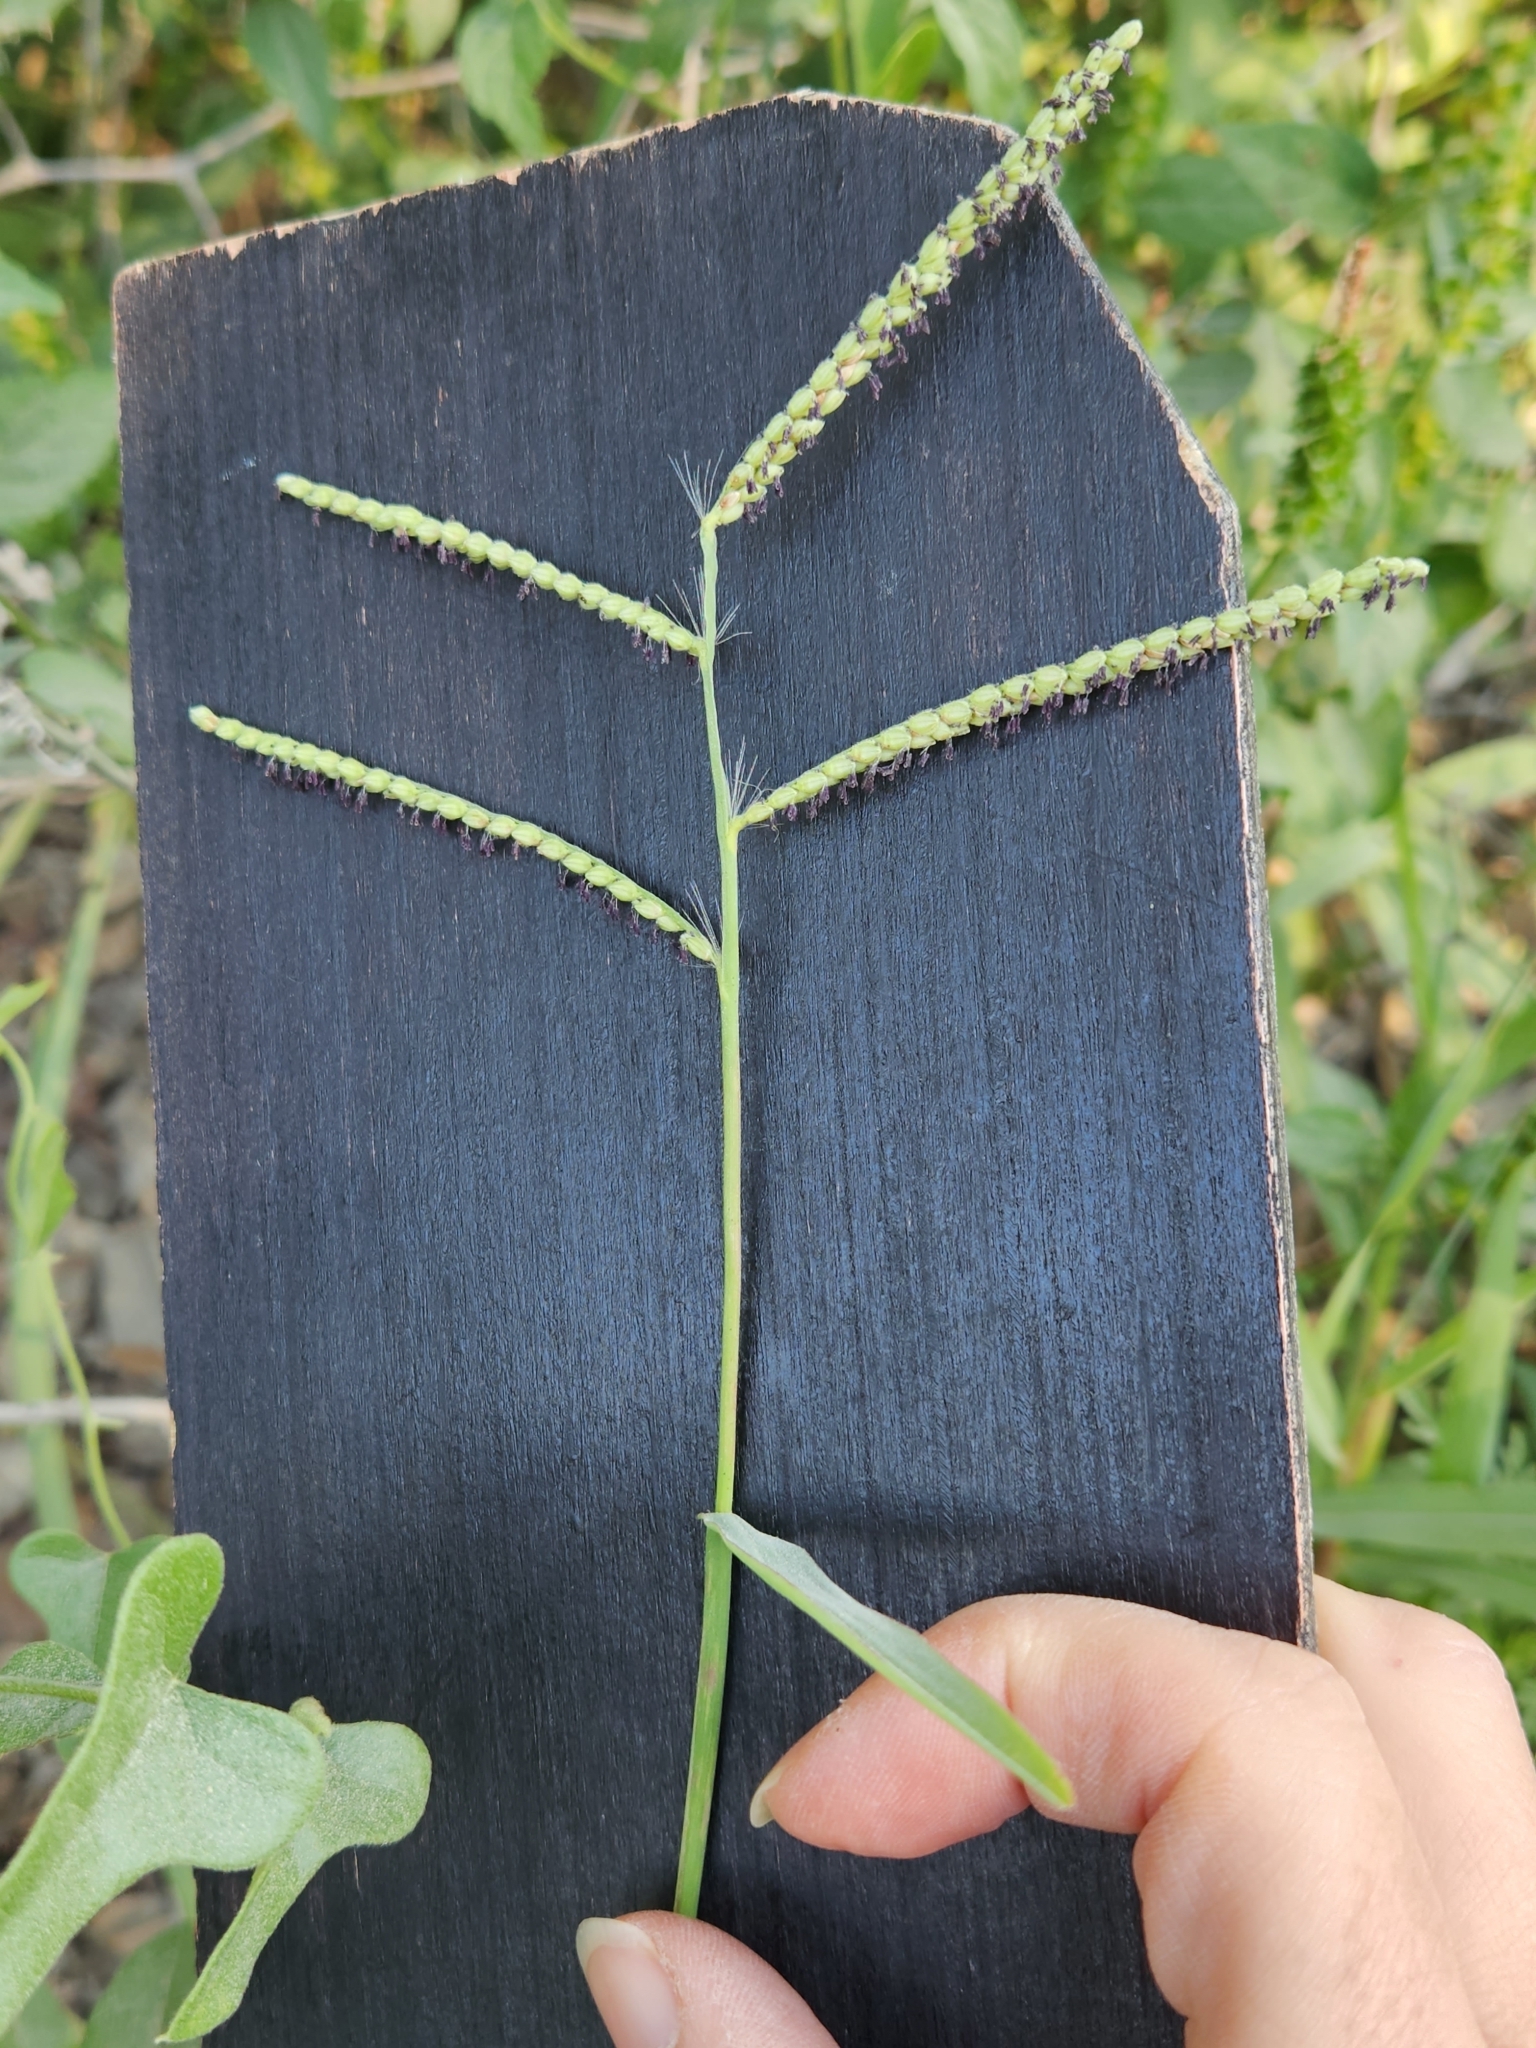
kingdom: Plantae
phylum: Tracheophyta
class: Liliopsida
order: Poales
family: Poaceae
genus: Paspalum
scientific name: Paspalum pubiflorum
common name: Hairy-seed paspalum
